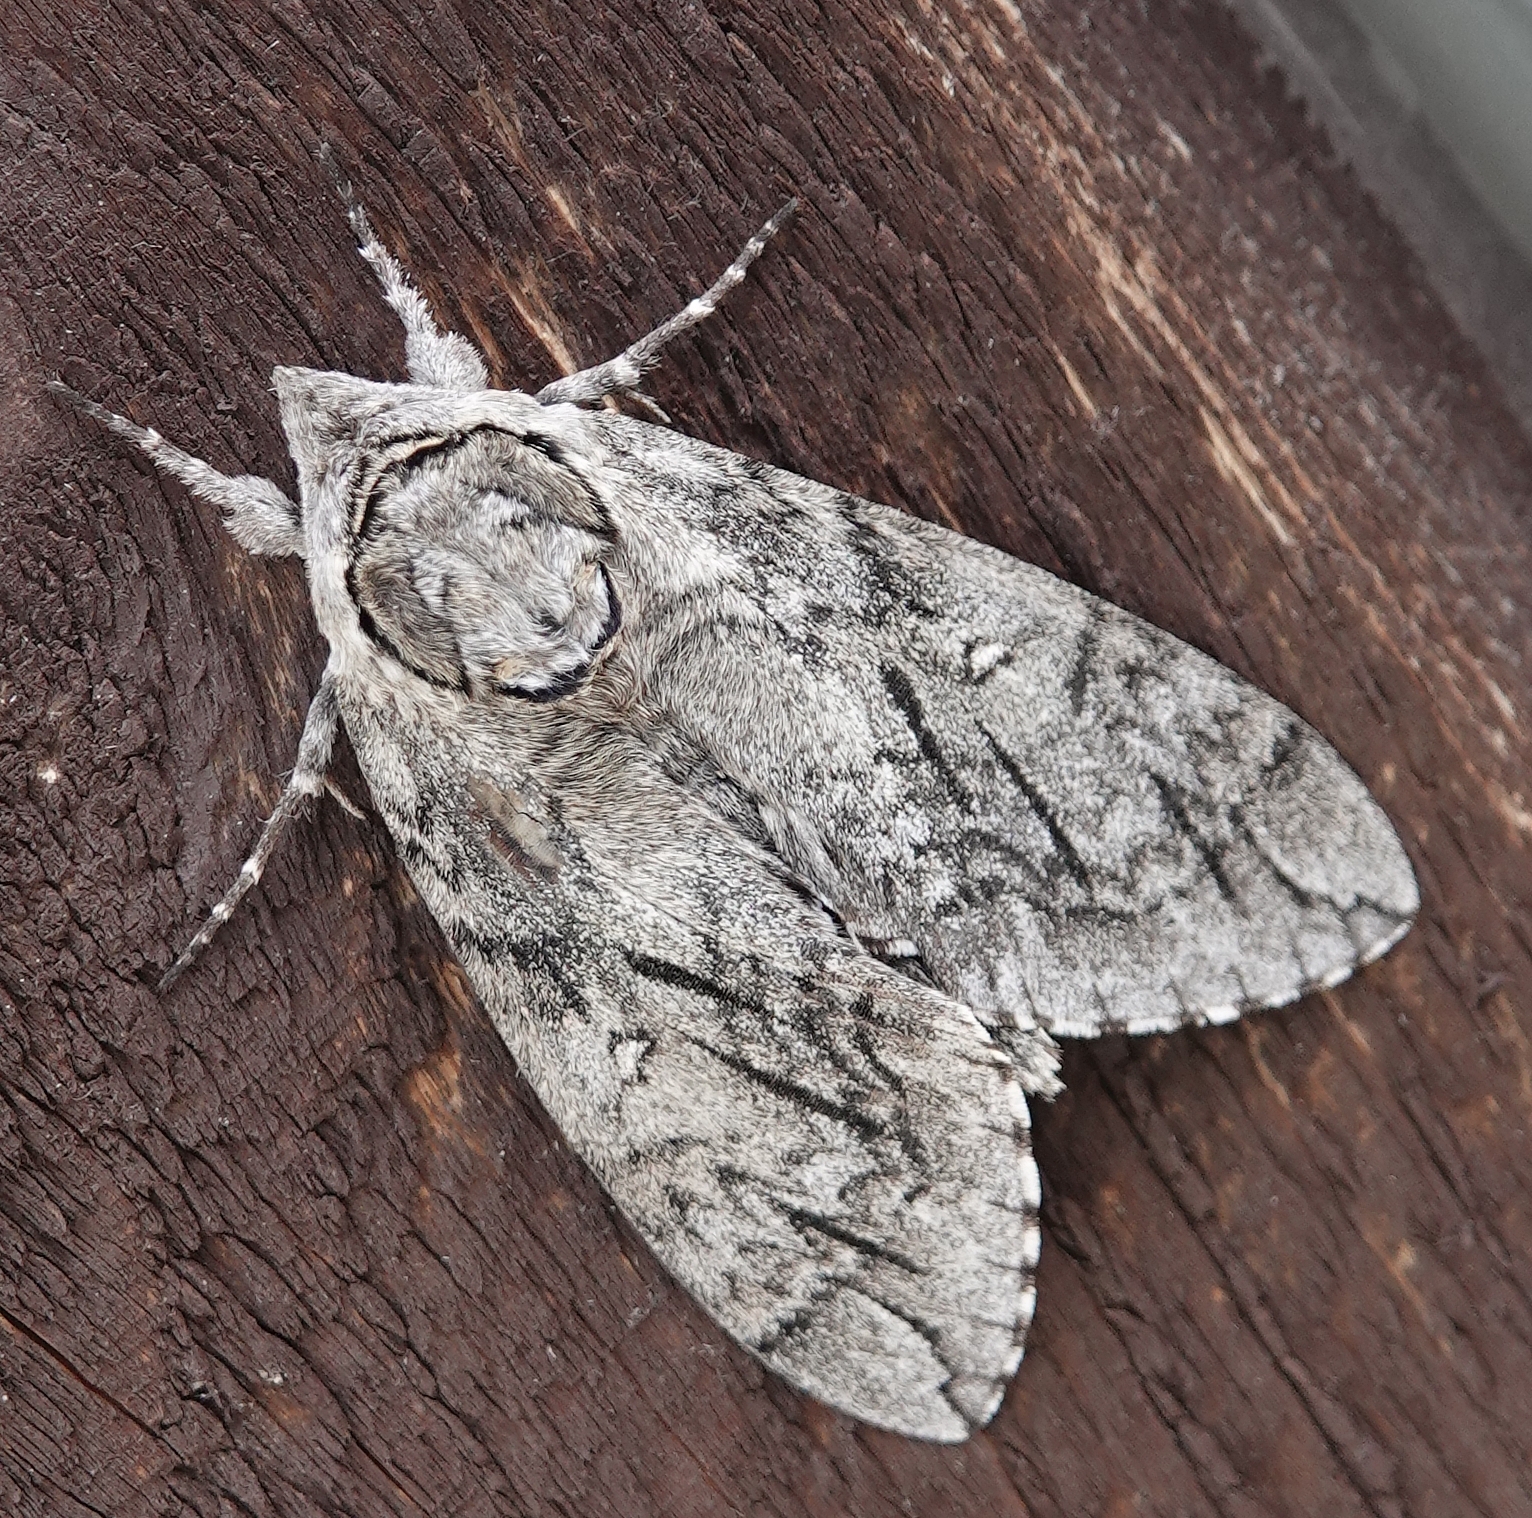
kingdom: Animalia
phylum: Arthropoda
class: Insecta
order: Lepidoptera
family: Sphingidae
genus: Ceratomia
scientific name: Ceratomia undulosa
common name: Waved sphinx
